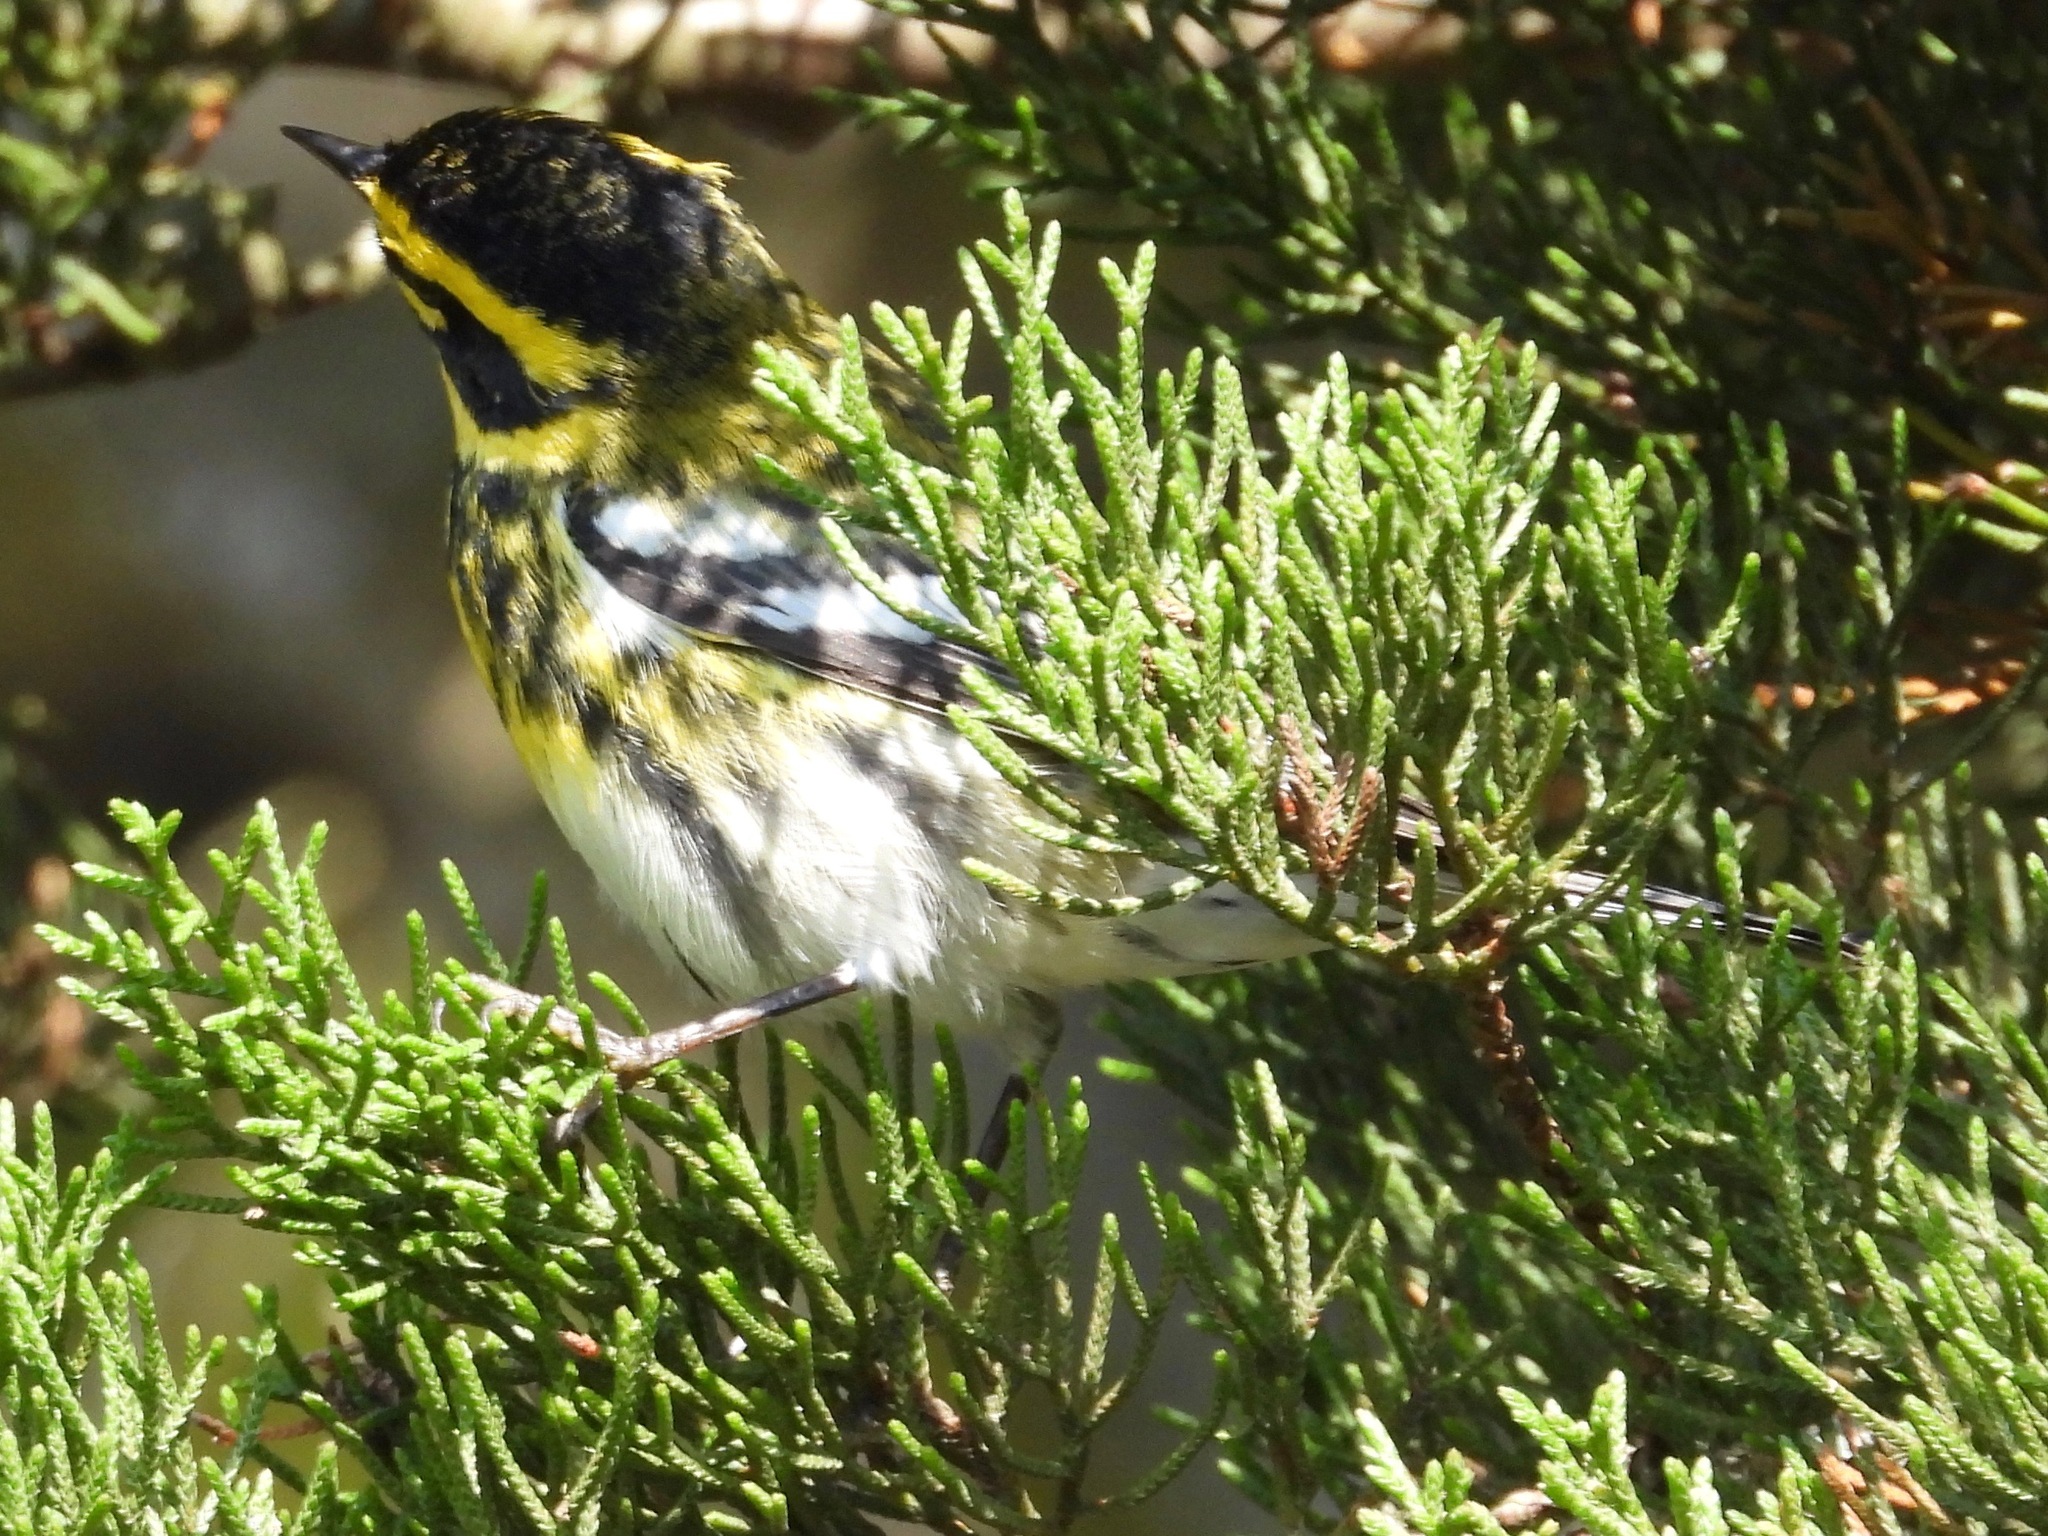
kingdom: Animalia
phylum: Chordata
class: Aves
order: Passeriformes
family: Parulidae
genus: Setophaga
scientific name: Setophaga townsendi
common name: Townsend's warbler
